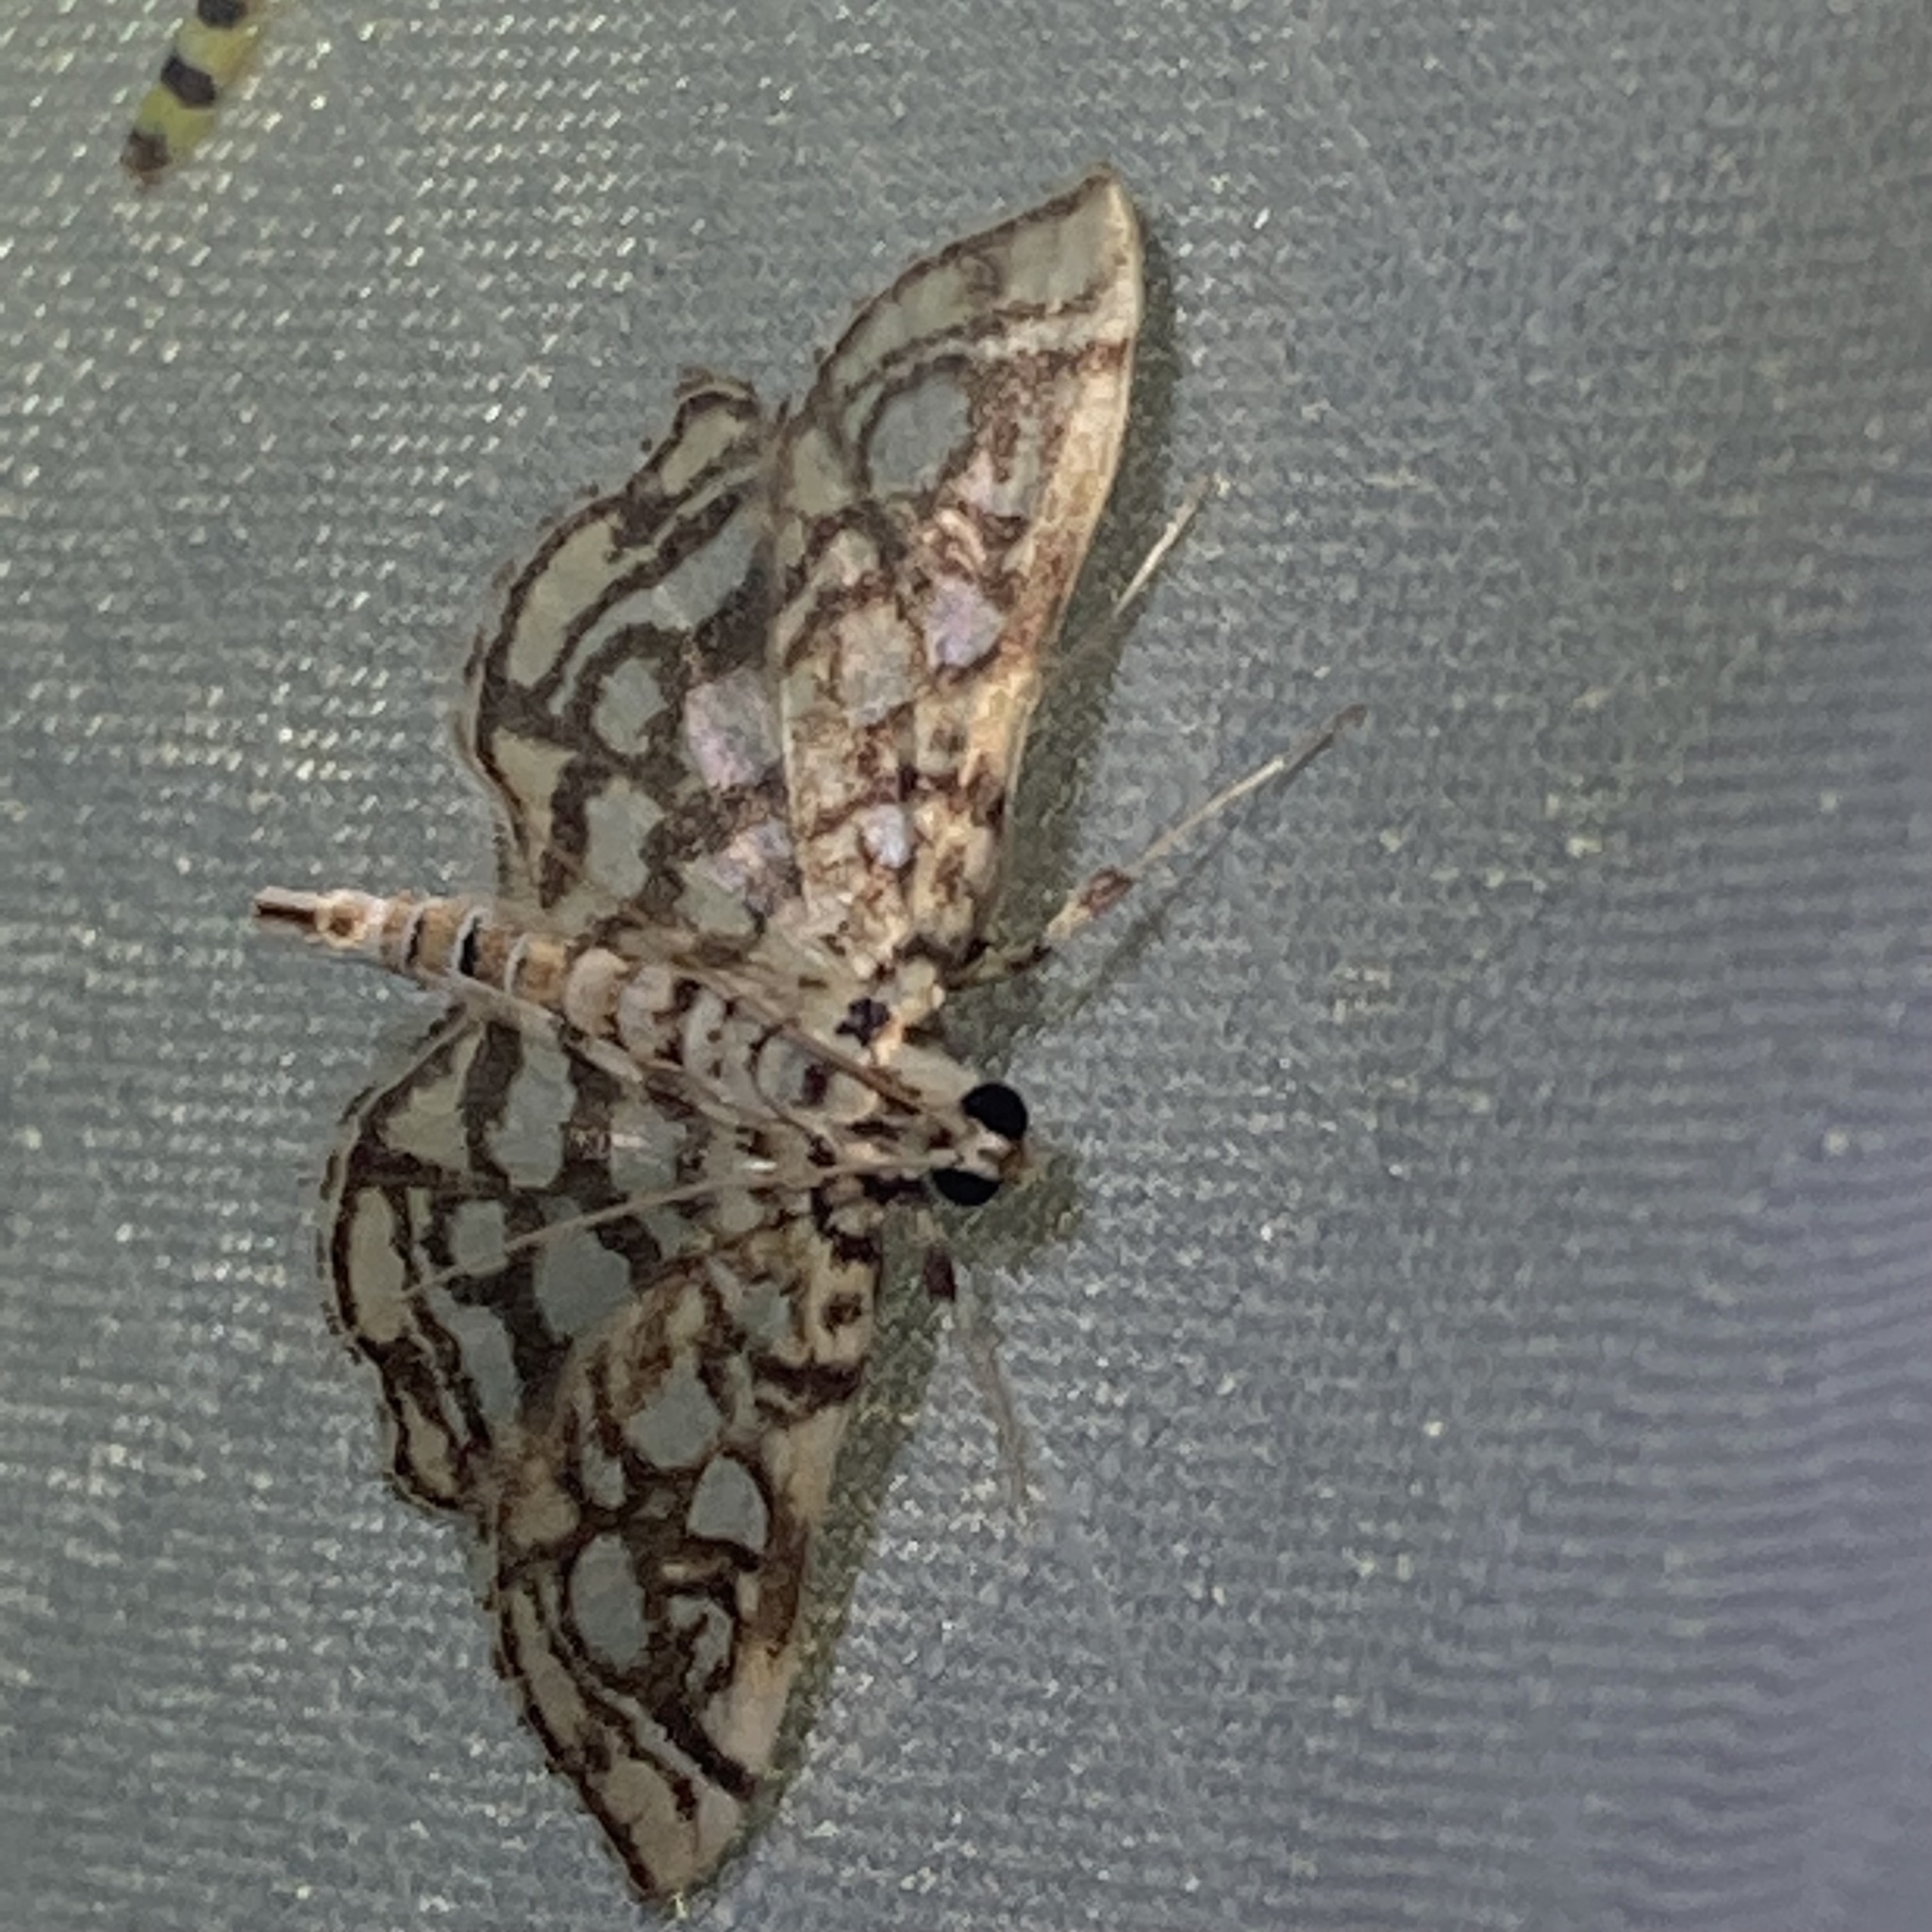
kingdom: Animalia
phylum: Arthropoda
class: Insecta
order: Lepidoptera
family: Crambidae
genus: Lygropia
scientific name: Lygropia rivulalis
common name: Bog lygropia moth
